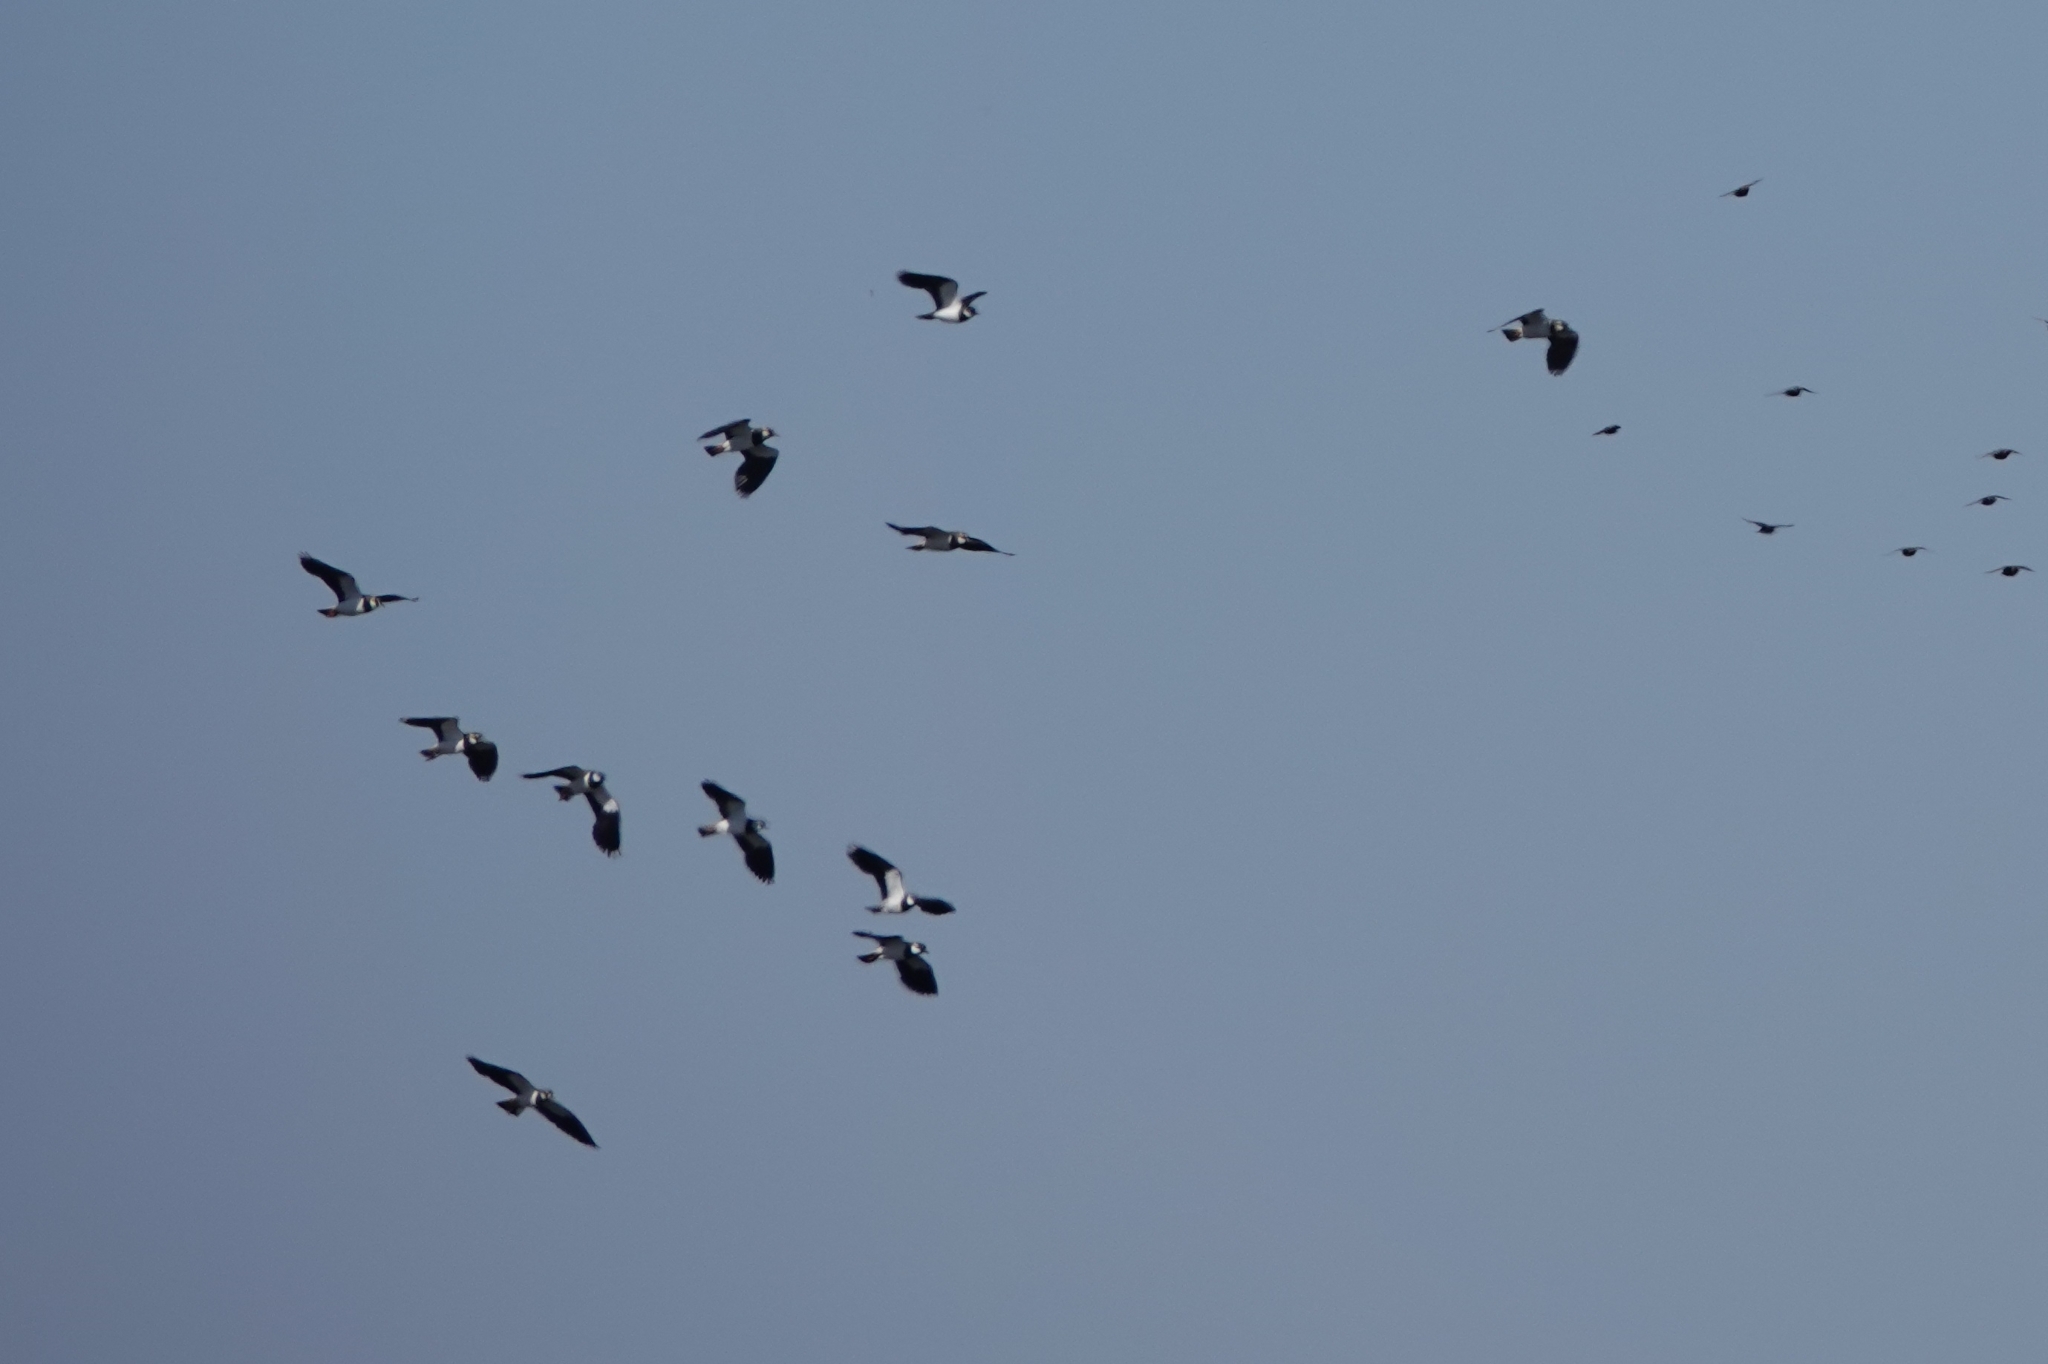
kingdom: Animalia
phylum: Chordata
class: Aves
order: Charadriiformes
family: Charadriidae
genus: Vanellus
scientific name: Vanellus vanellus
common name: Northern lapwing
